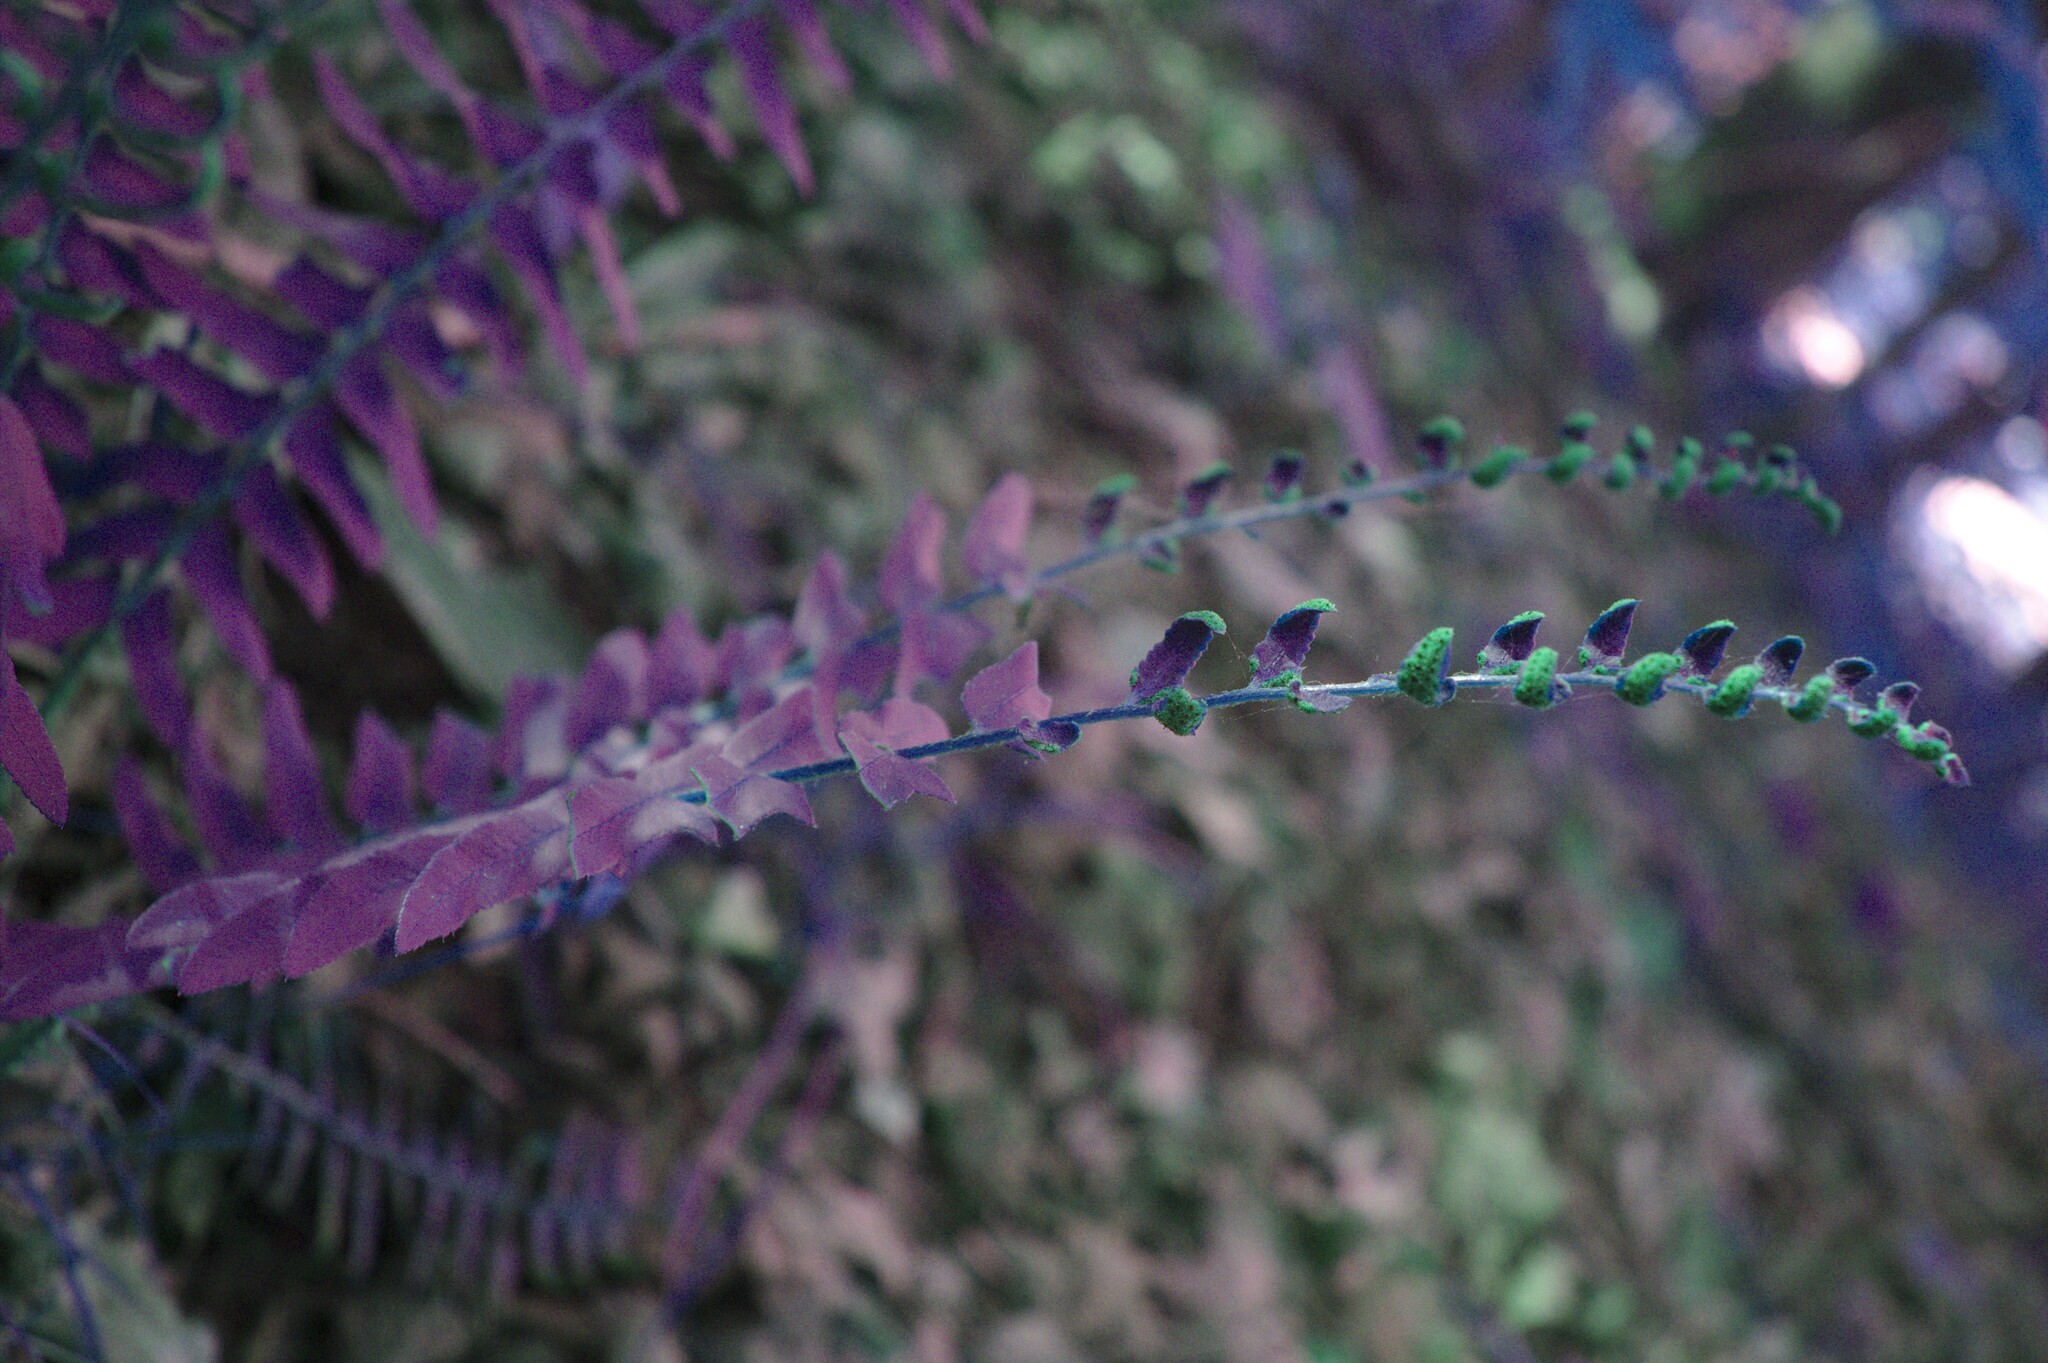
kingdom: Plantae
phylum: Tracheophyta
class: Polypodiopsida
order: Polypodiales
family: Dryopteridaceae
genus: Polystichum
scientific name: Polystichum acrostichoides
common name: Christmas fern
